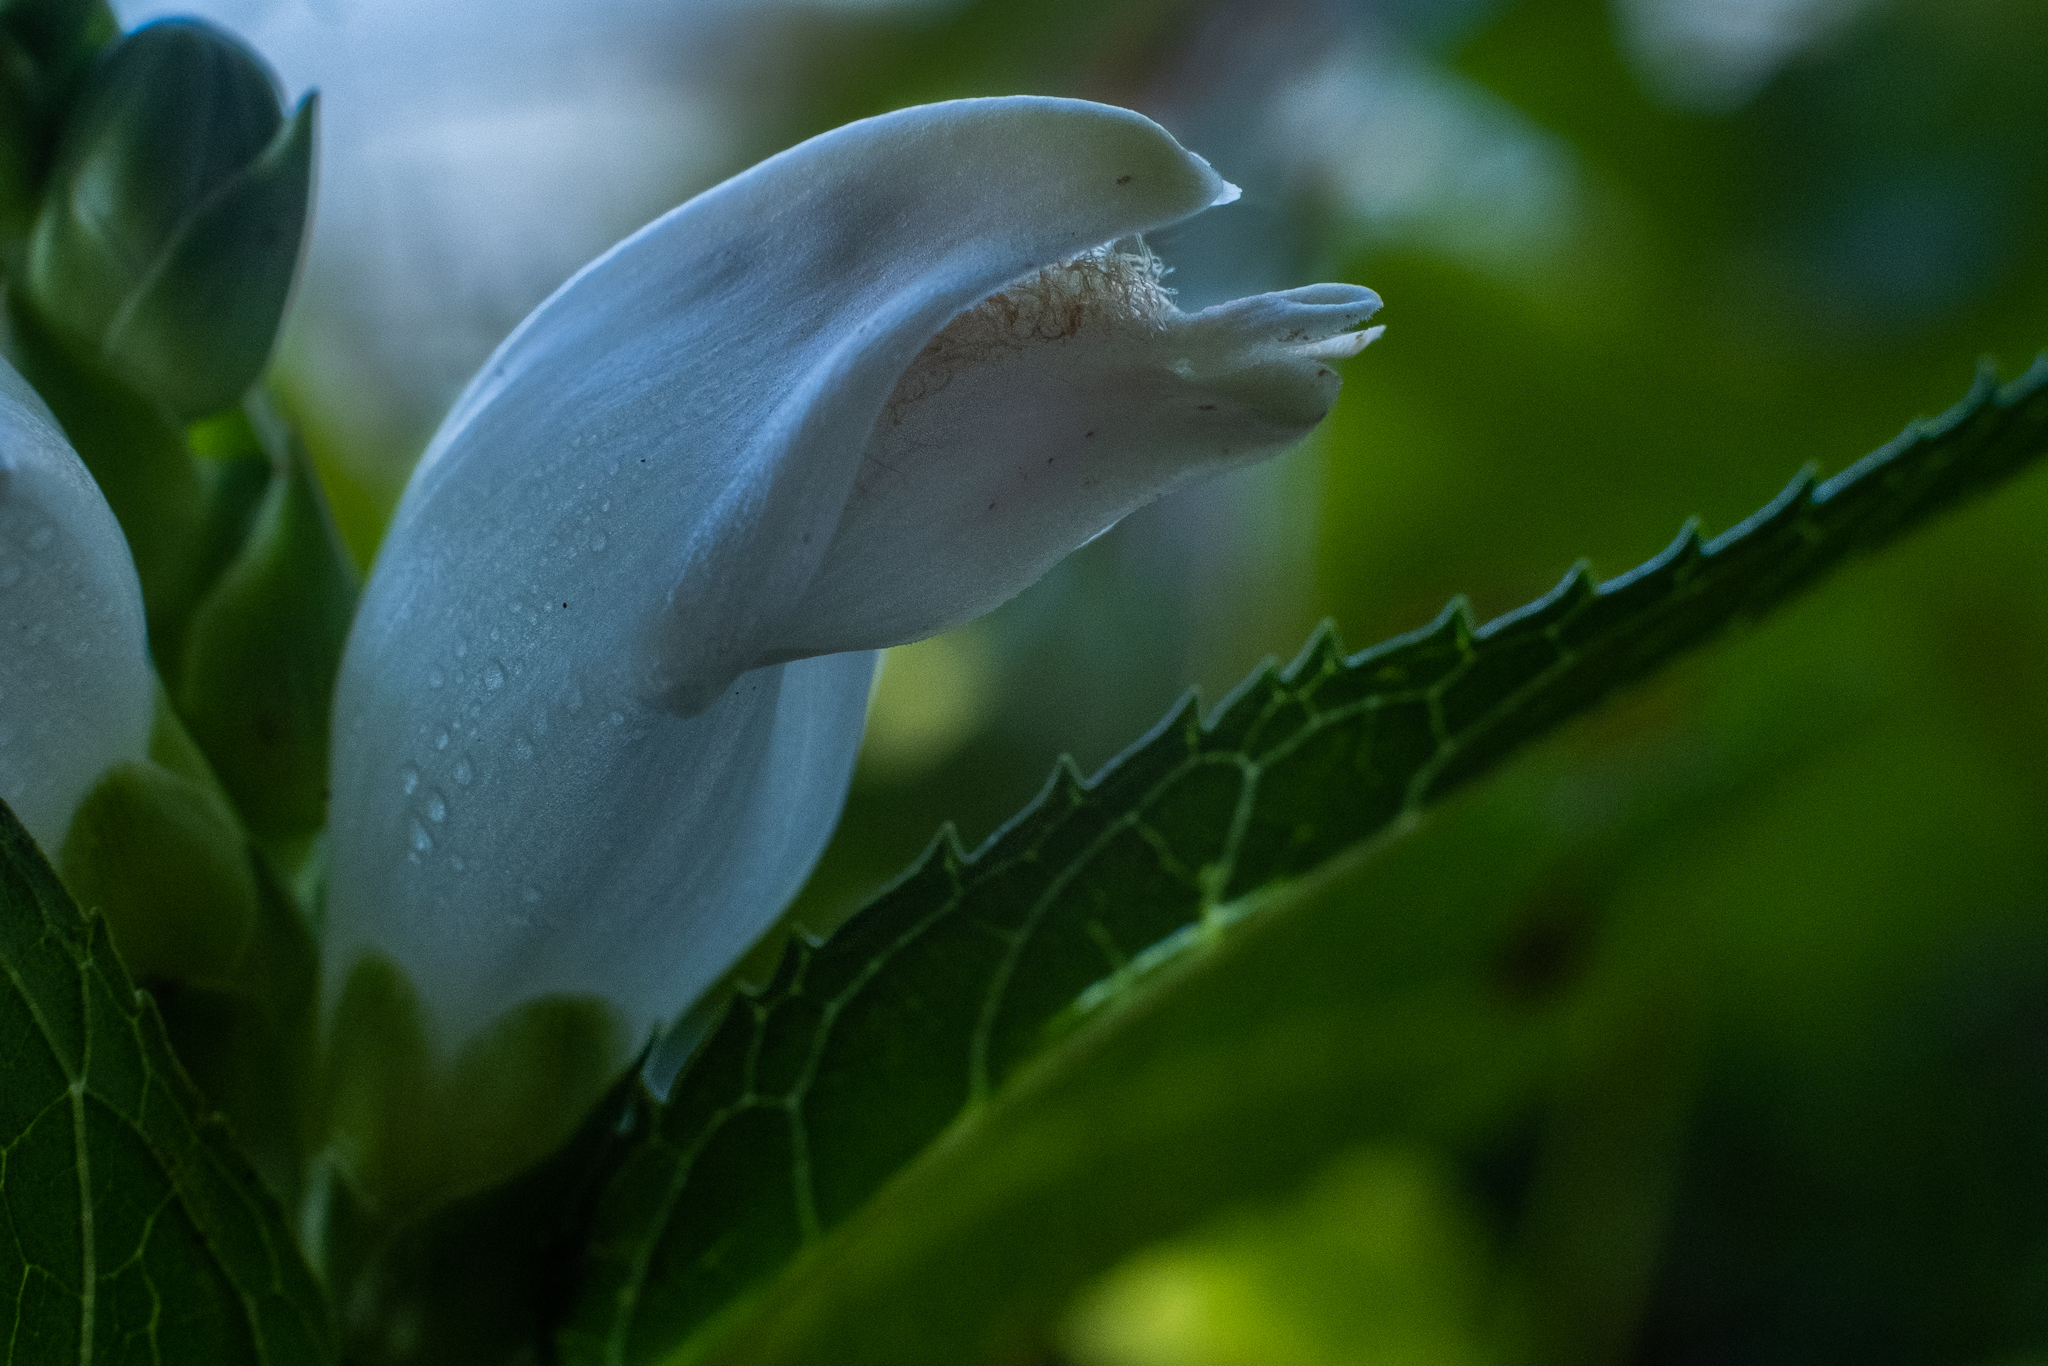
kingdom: Plantae
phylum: Tracheophyta
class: Magnoliopsida
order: Lamiales
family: Plantaginaceae
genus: Chelone
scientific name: Chelone glabra
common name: Snakehead
